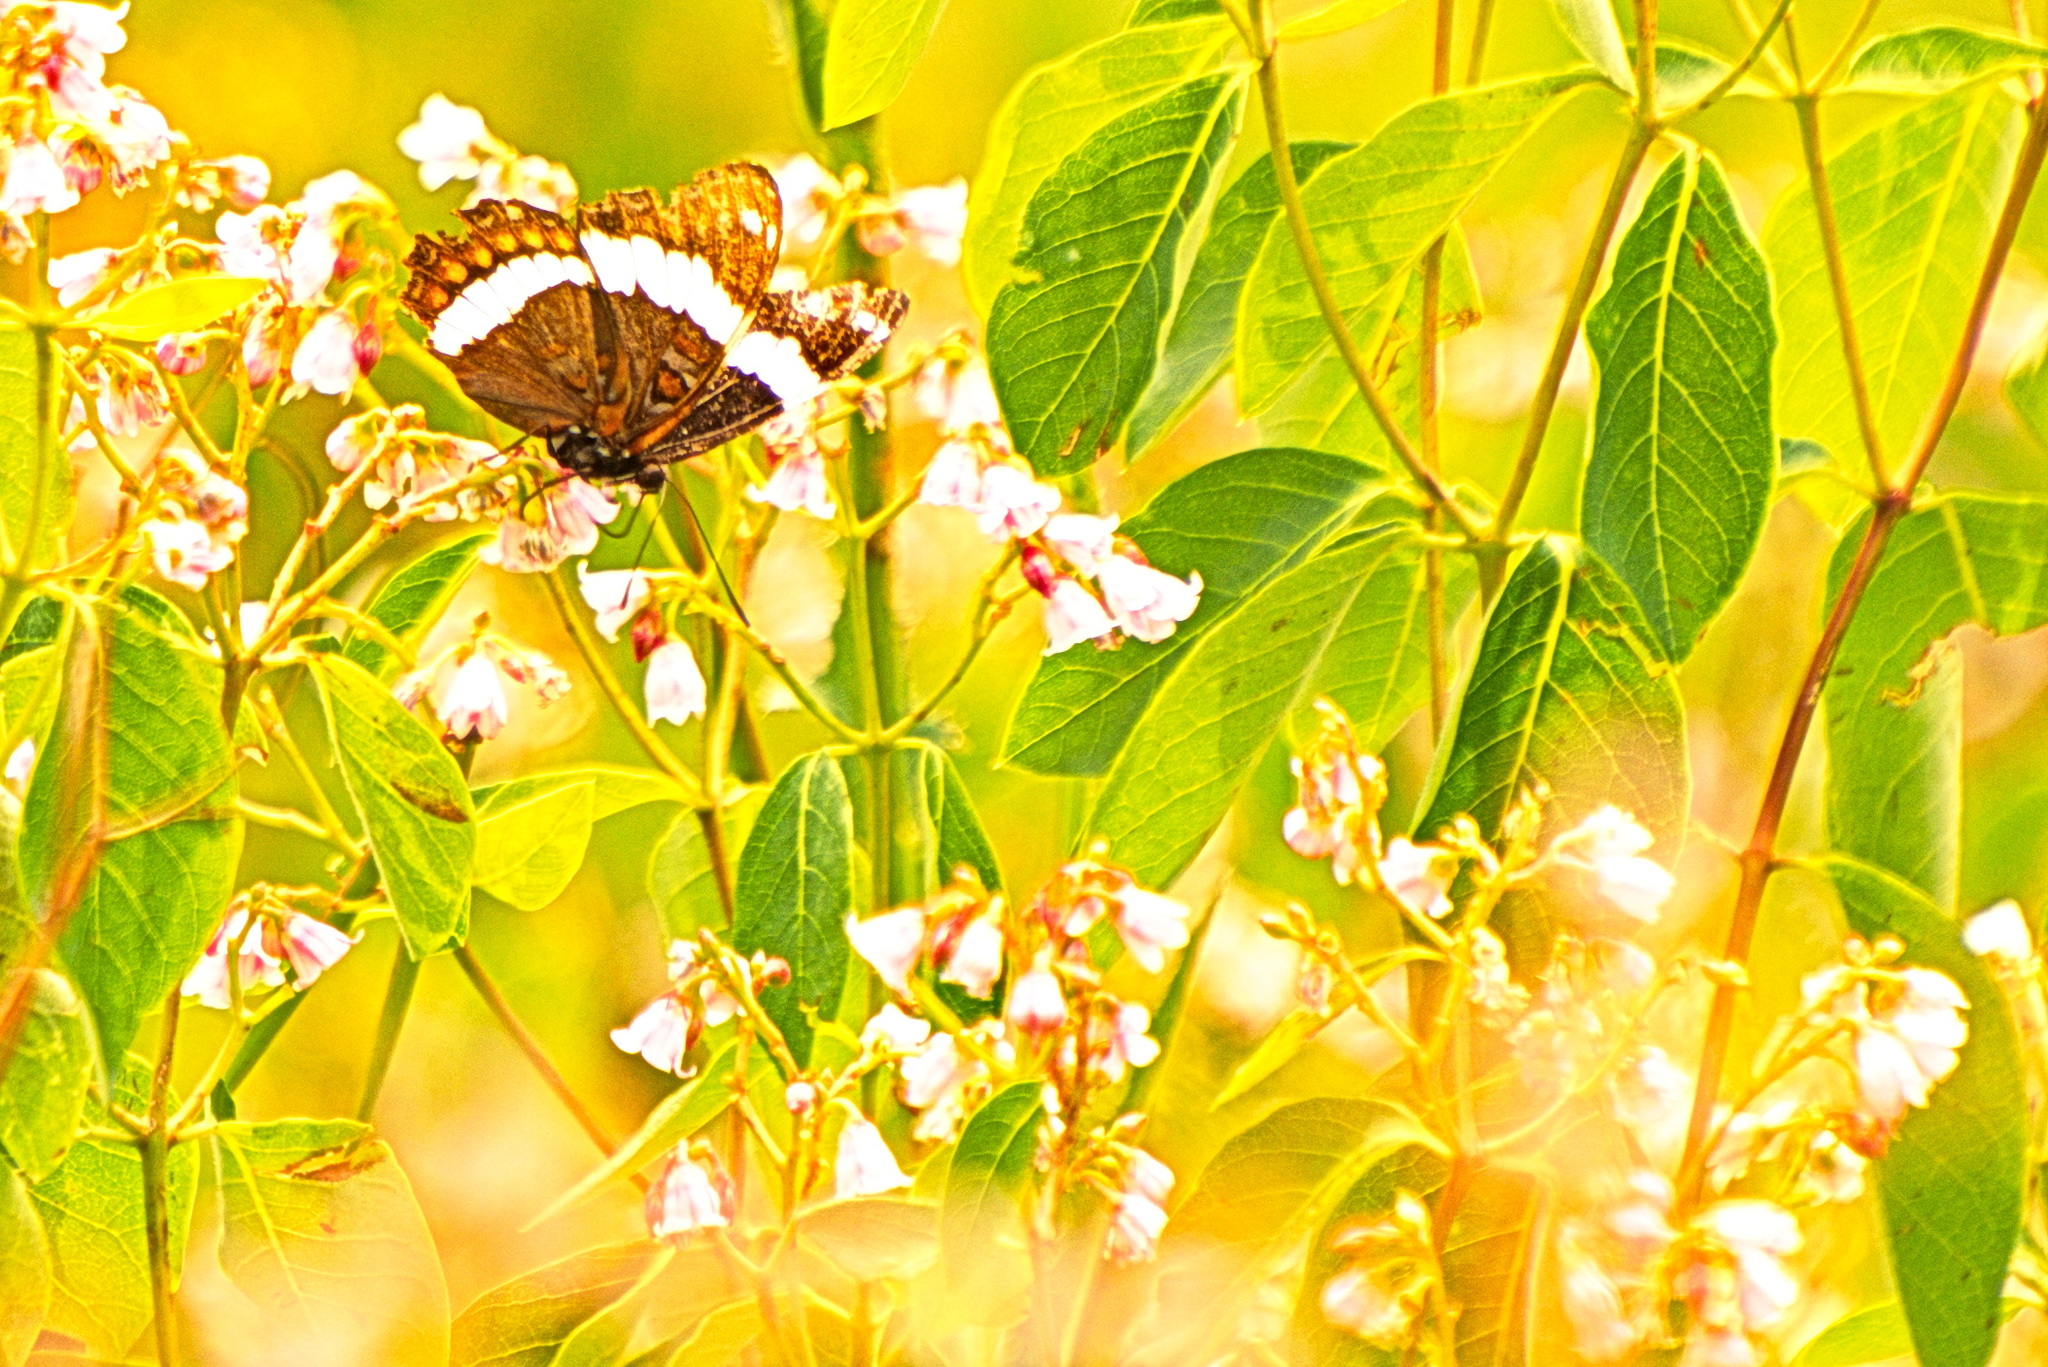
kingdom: Animalia
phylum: Arthropoda
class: Insecta
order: Lepidoptera
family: Nymphalidae
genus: Limenitis
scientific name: Limenitis arthemis
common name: Red-spotted admiral
